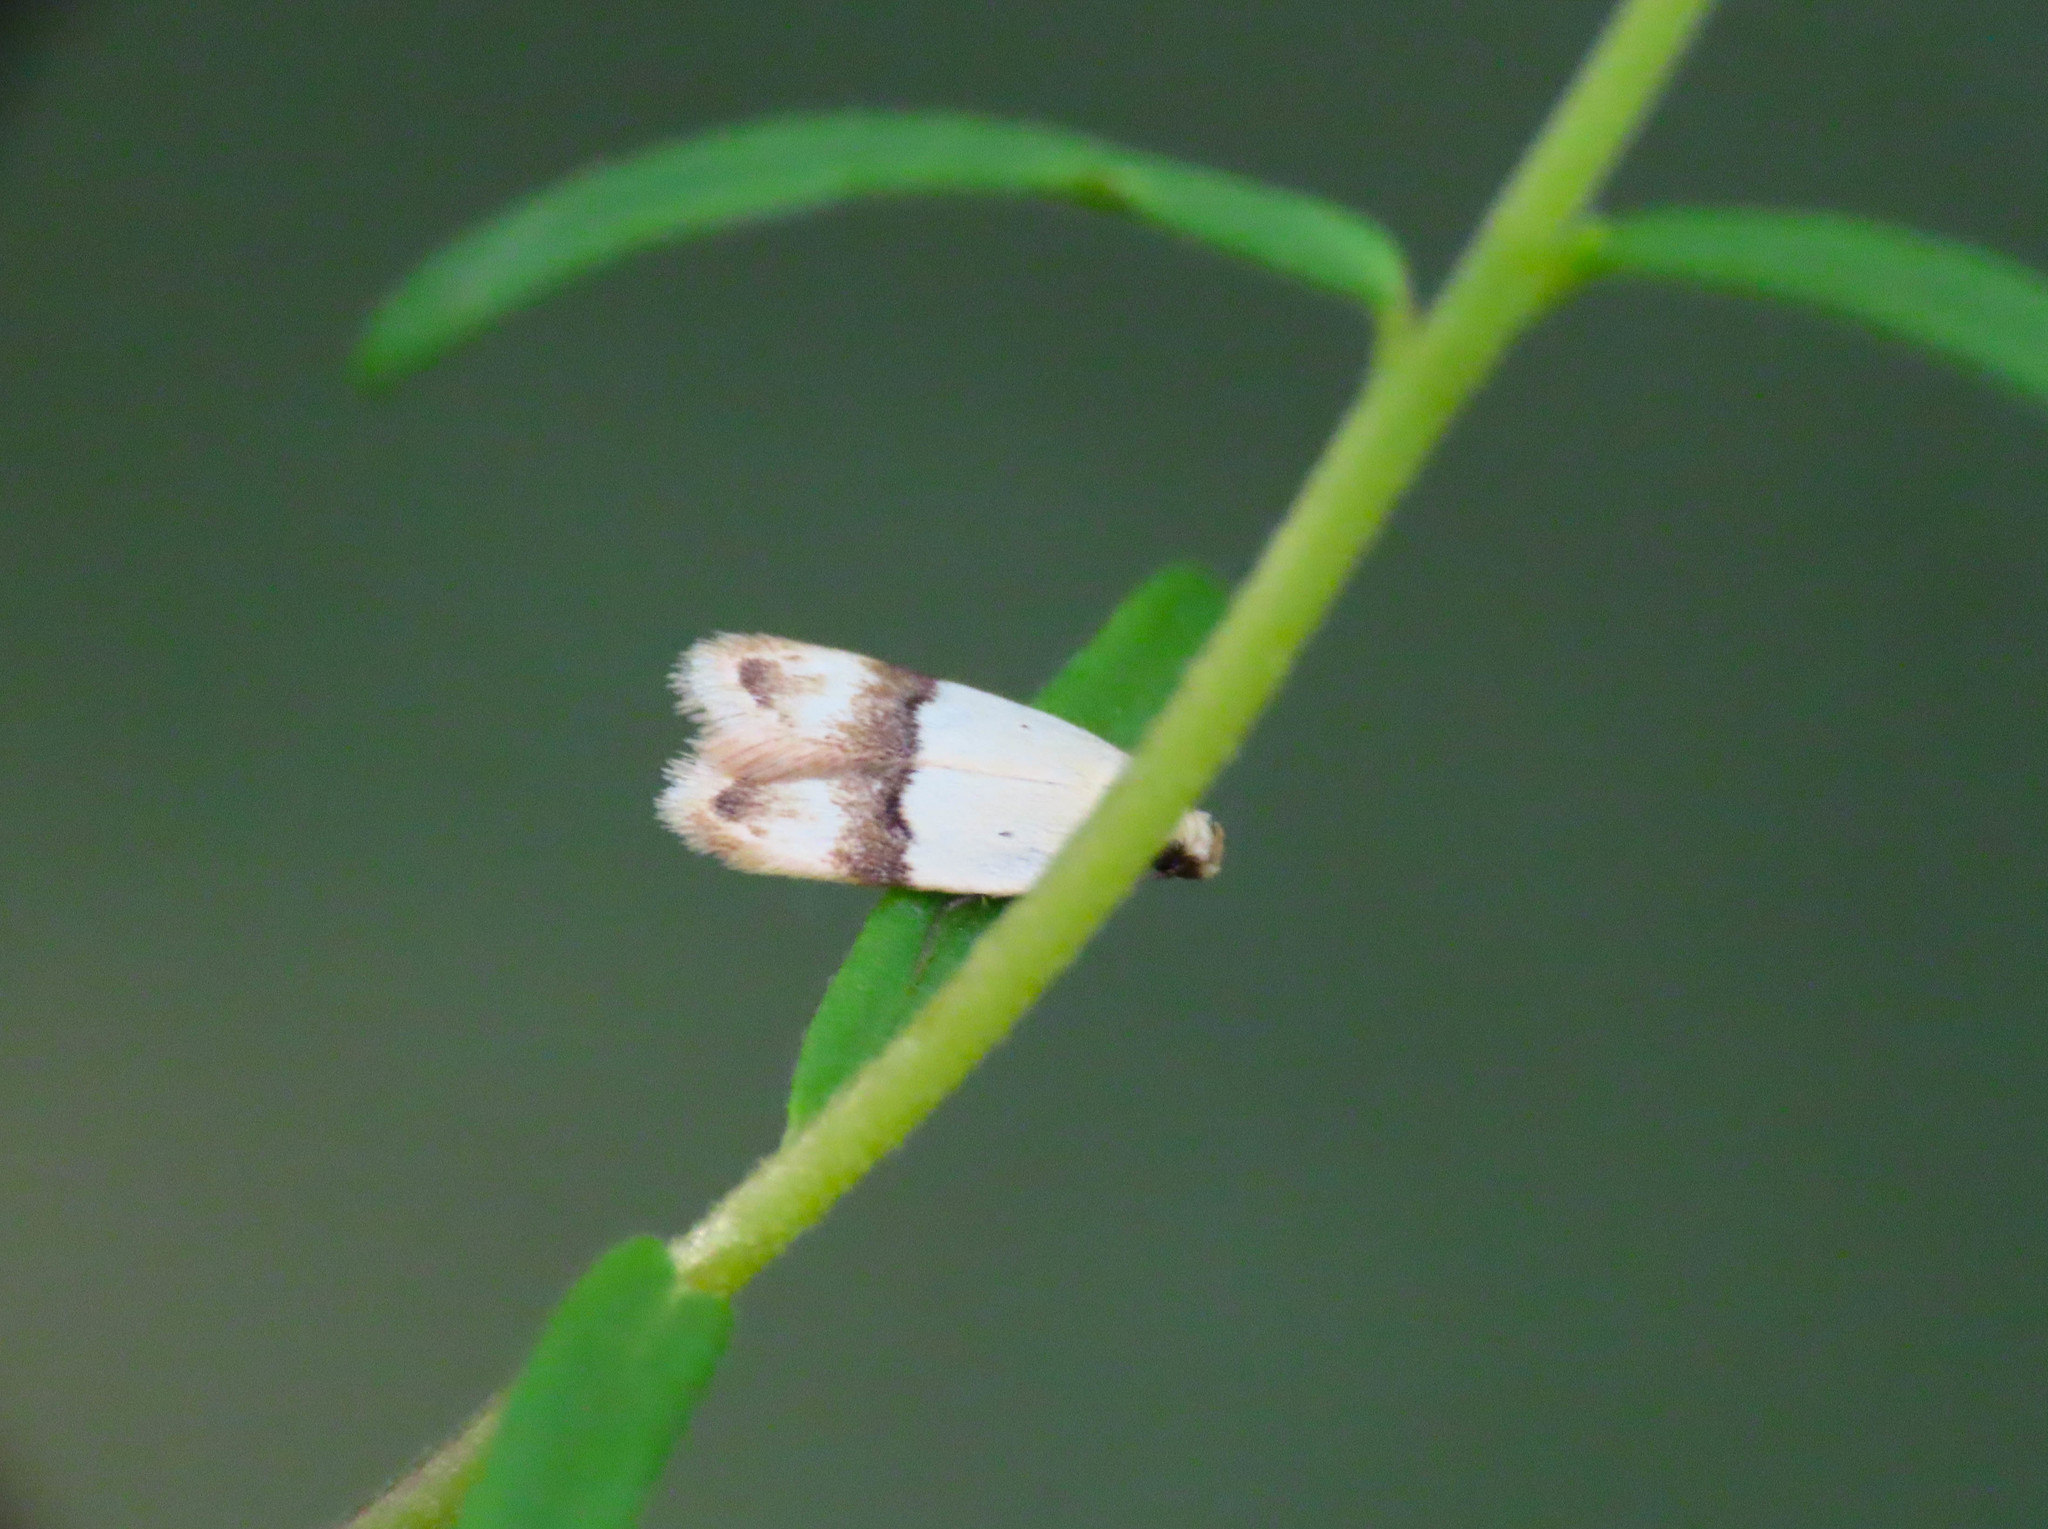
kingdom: Animalia
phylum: Arthropoda
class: Insecta
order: Lepidoptera
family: Peleopodidae
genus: Odites
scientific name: Odites kollarella
